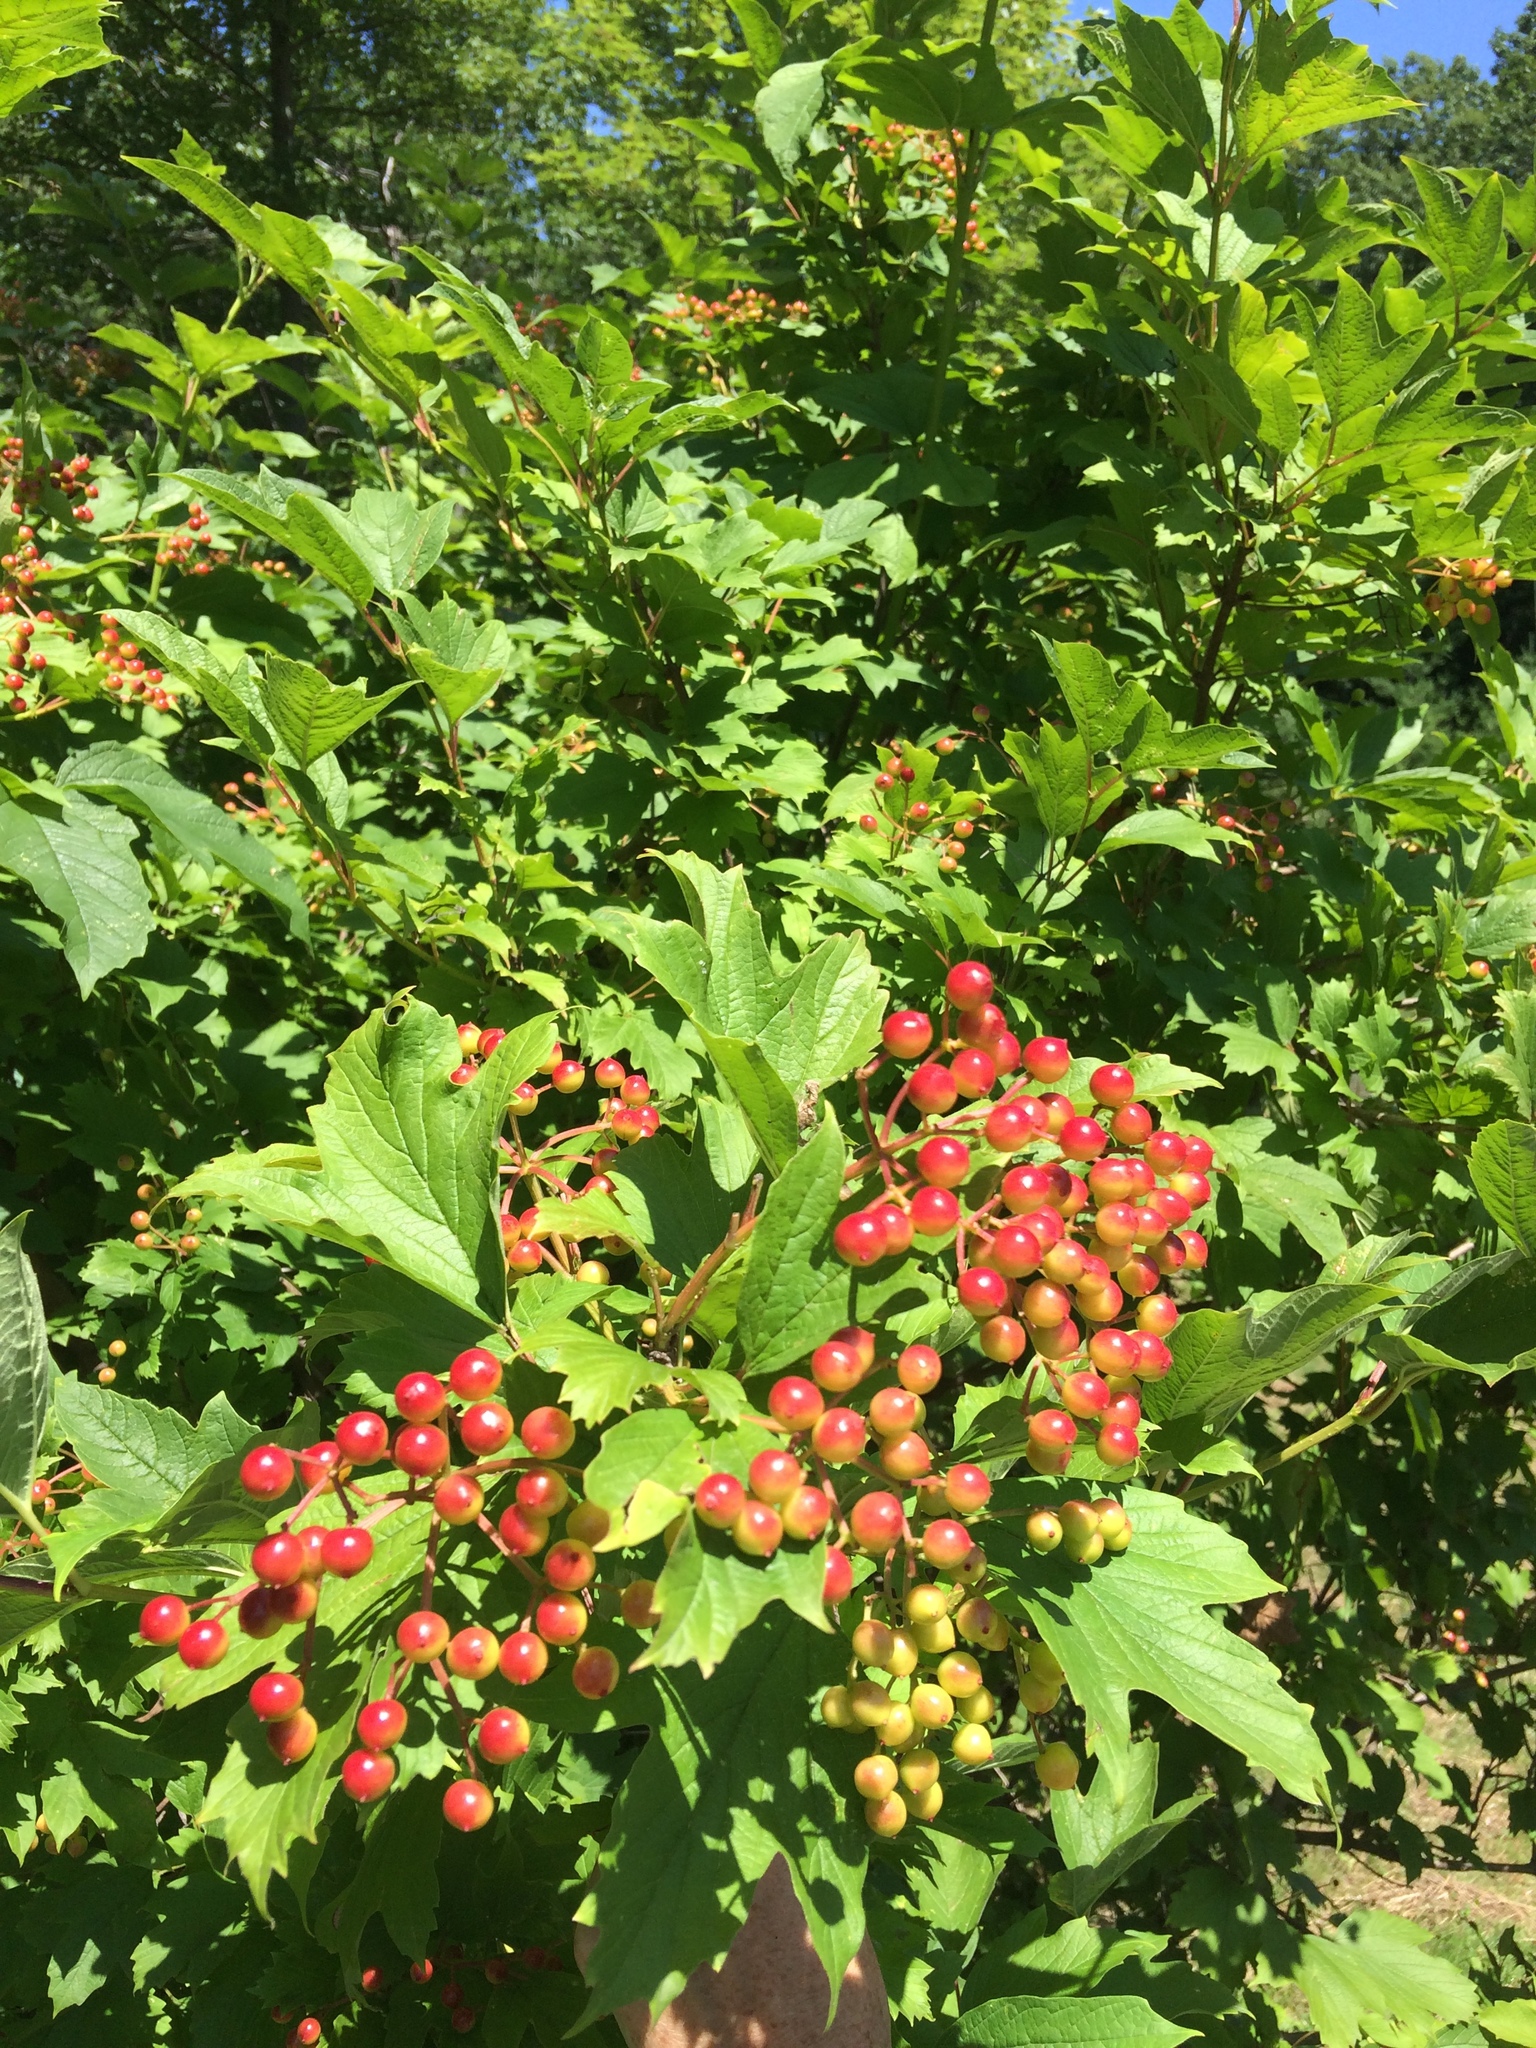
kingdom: Plantae
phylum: Tracheophyta
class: Magnoliopsida
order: Dipsacales
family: Viburnaceae
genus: Viburnum
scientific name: Viburnum opulus
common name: Guelder-rose
